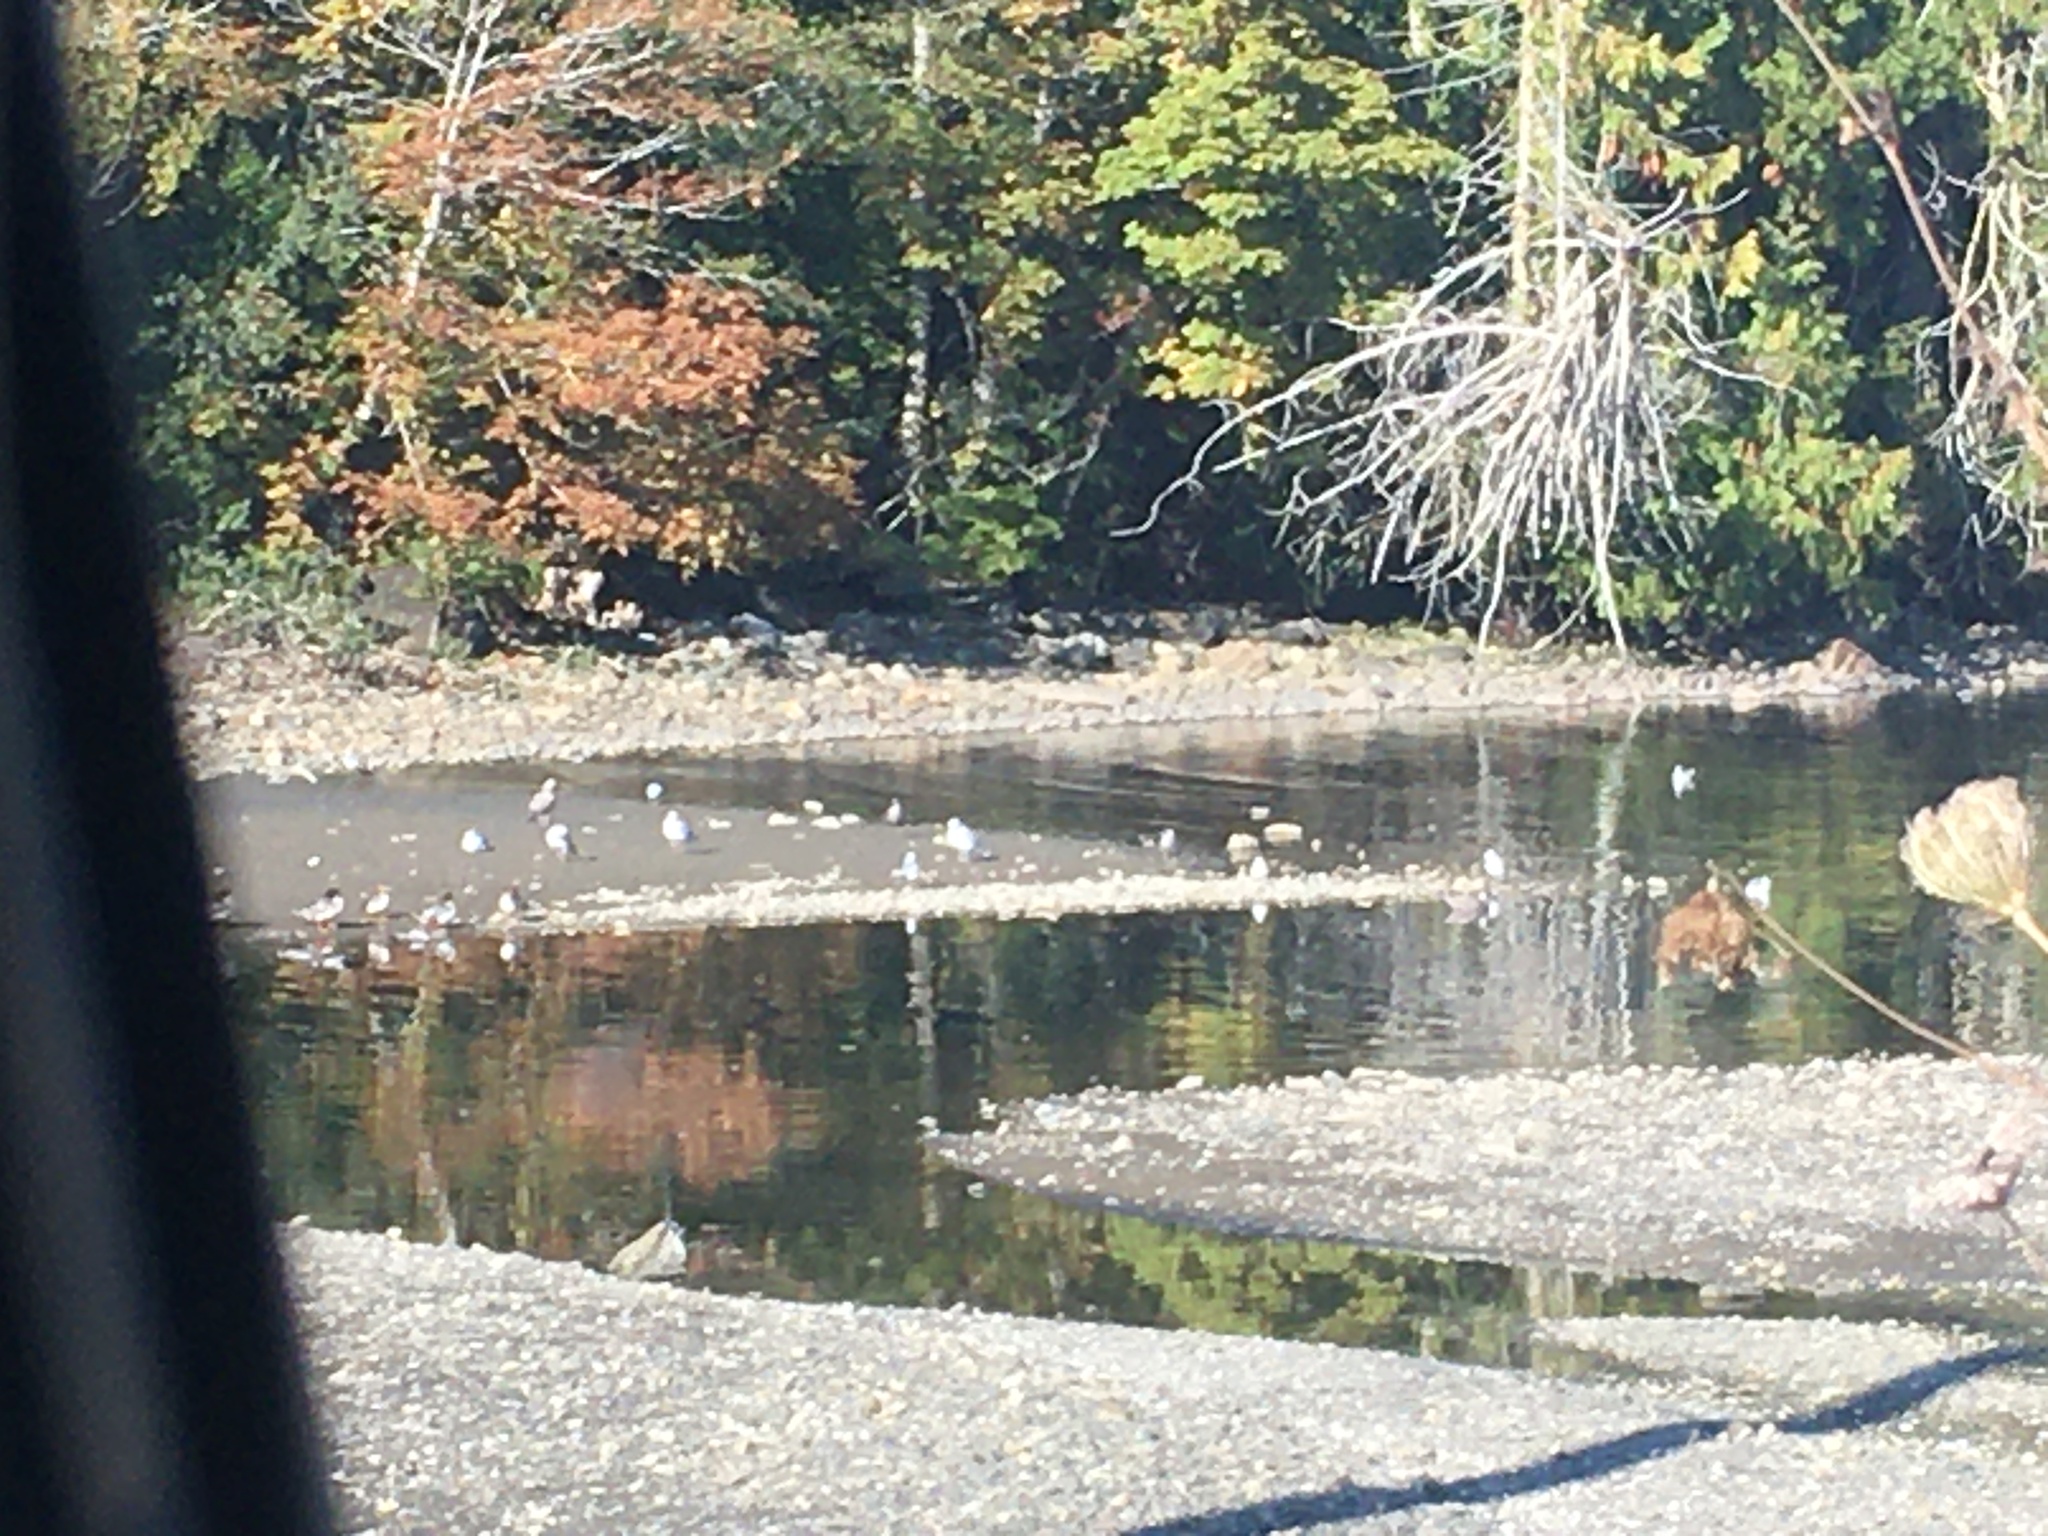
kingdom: Animalia
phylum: Chordata
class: Aves
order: Anseriformes
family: Anatidae
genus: Mergus
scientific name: Mergus merganser
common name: Common merganser
